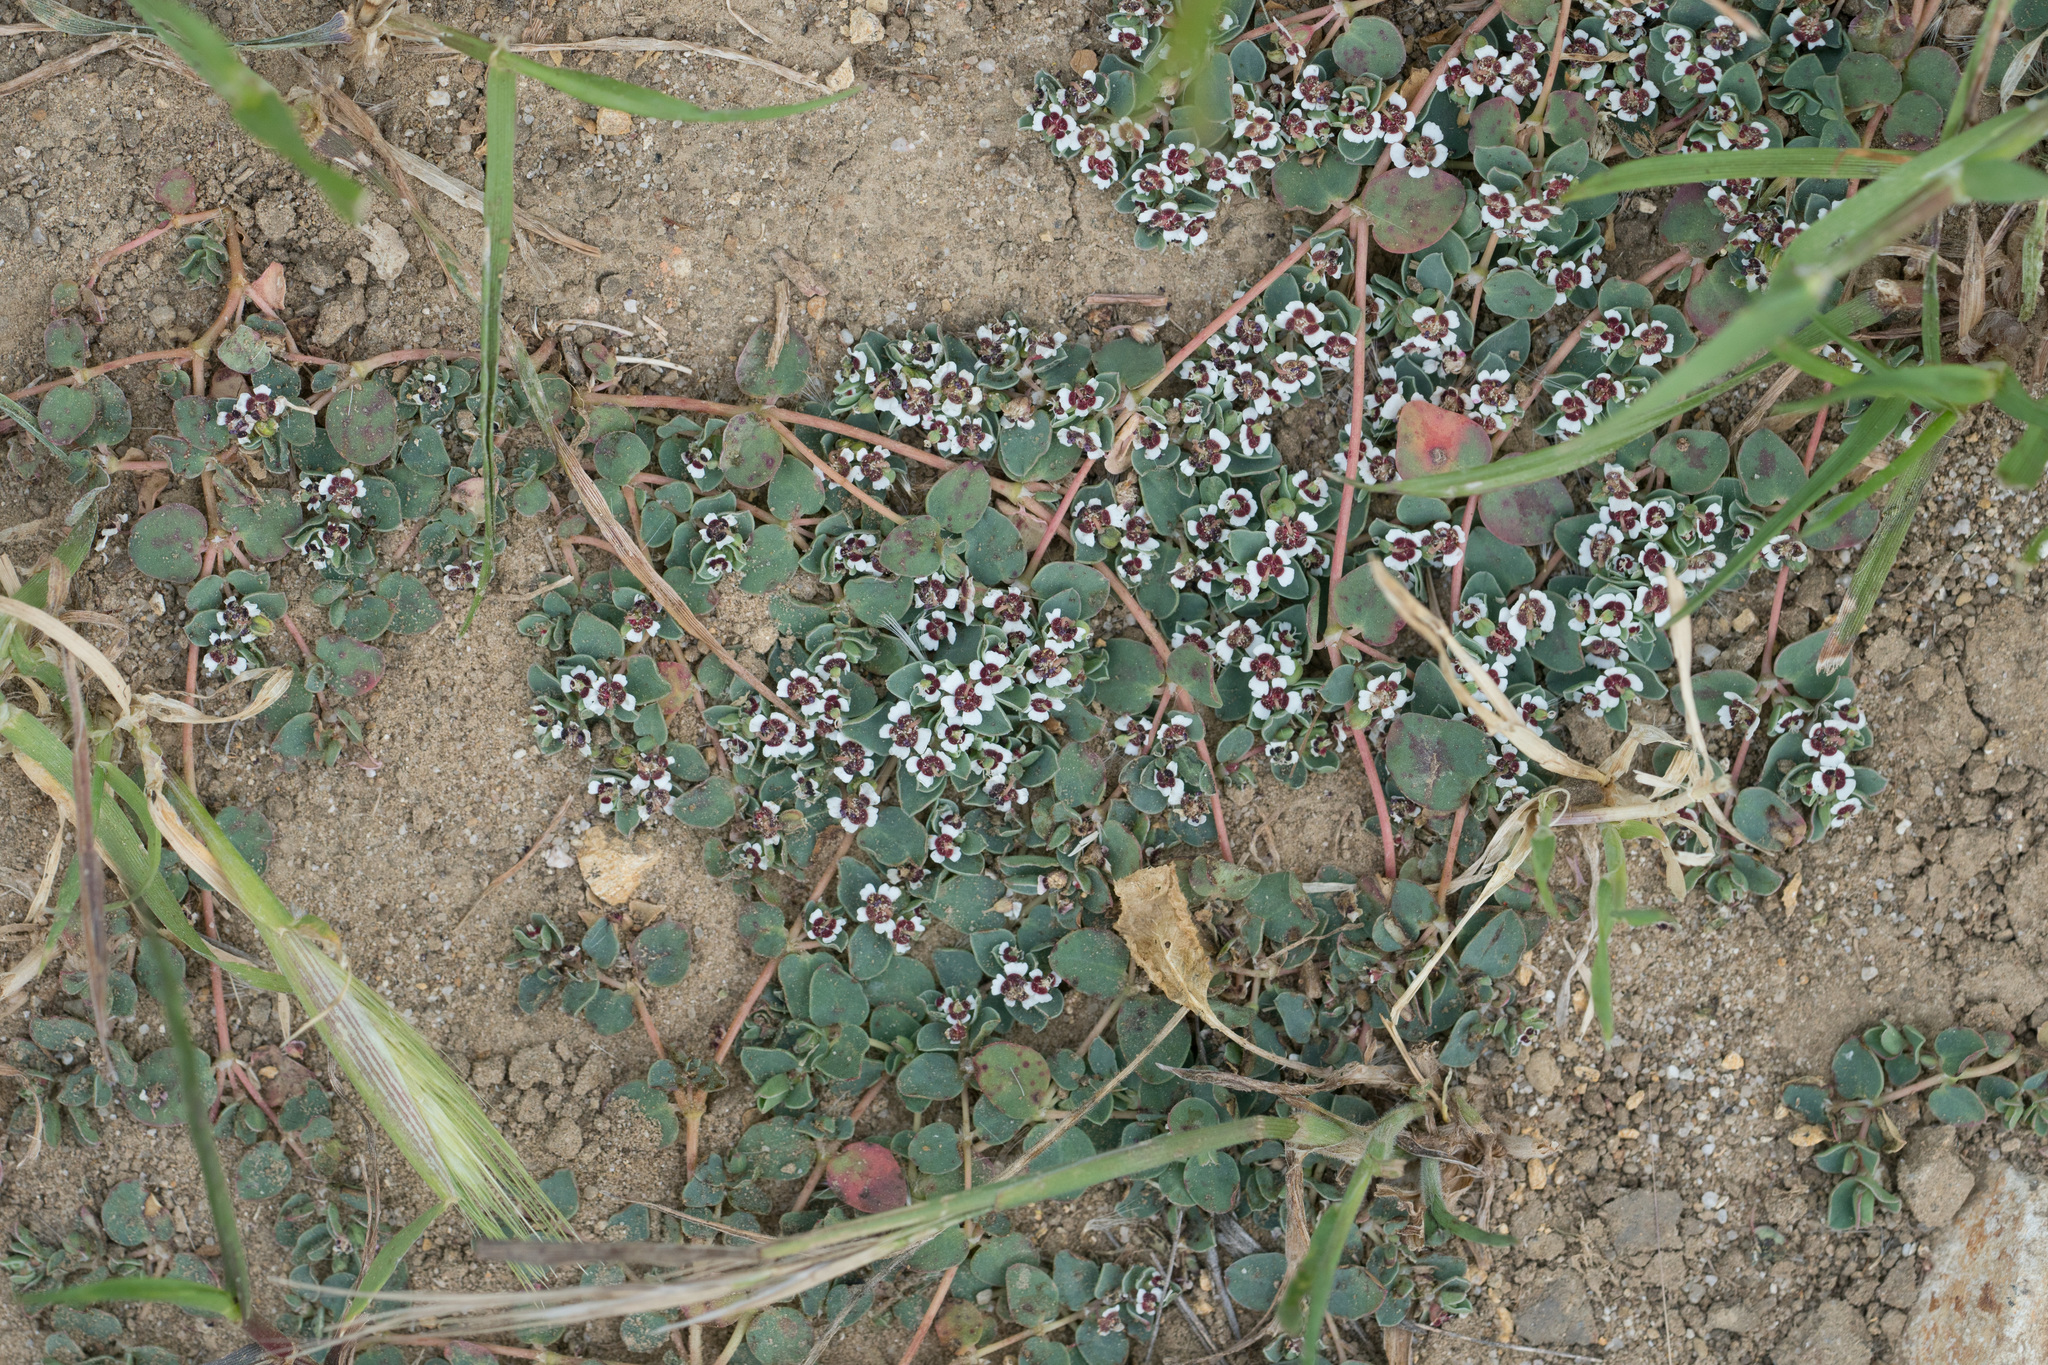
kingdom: Plantae
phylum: Tracheophyta
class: Magnoliopsida
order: Malpighiales
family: Euphorbiaceae
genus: Euphorbia
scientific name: Euphorbia albomarginata
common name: Whitemargin sandmat
